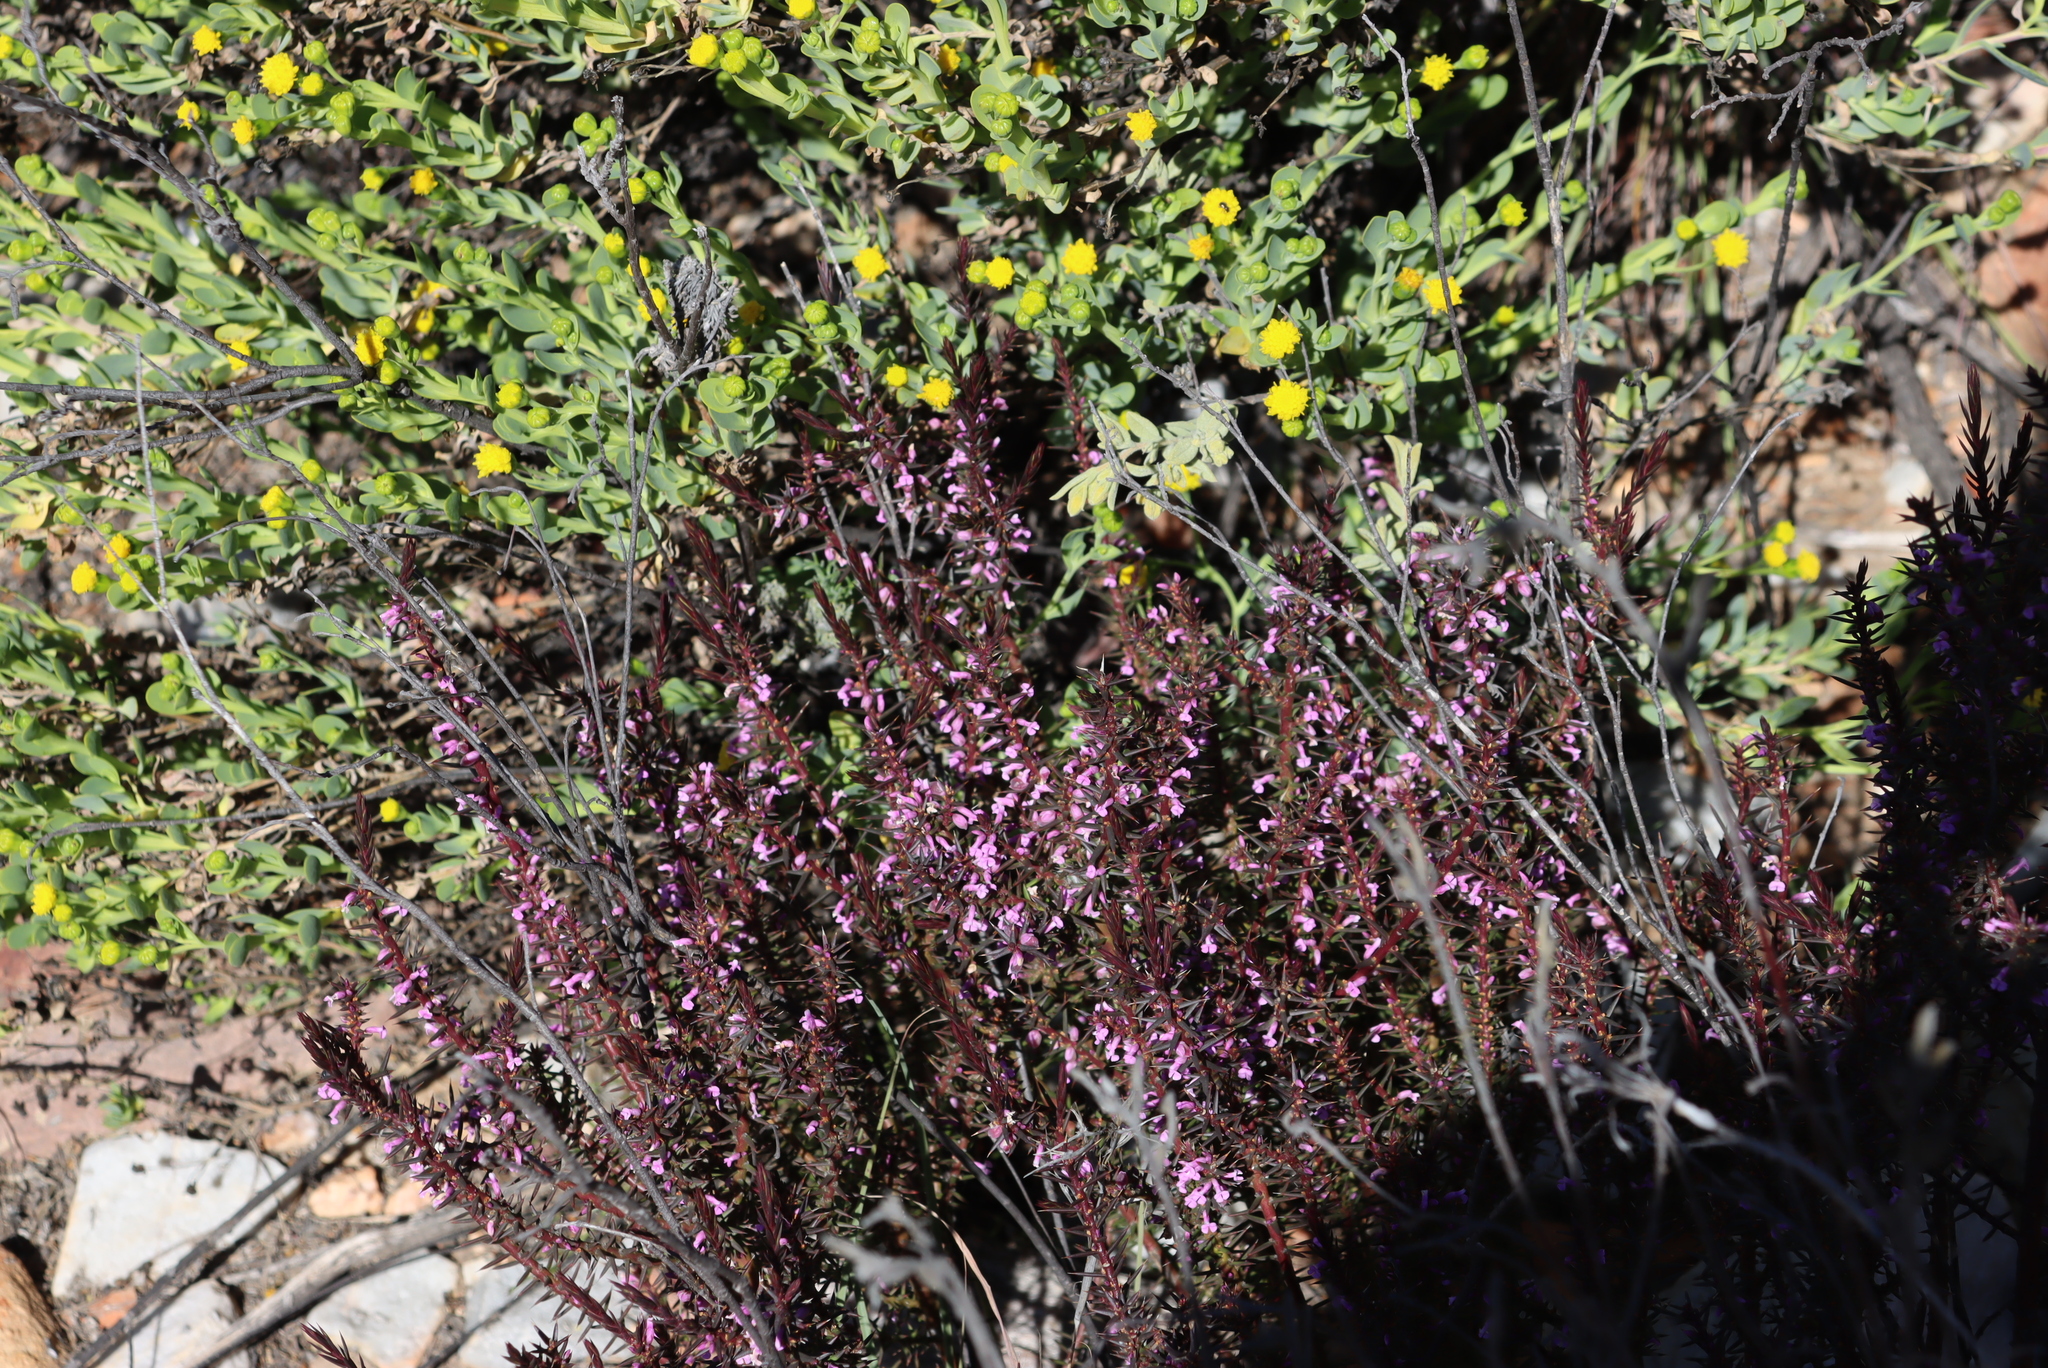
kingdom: Plantae
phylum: Tracheophyta
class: Magnoliopsida
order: Fabales
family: Polygalaceae
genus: Muraltia
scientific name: Muraltia juniperifolia
